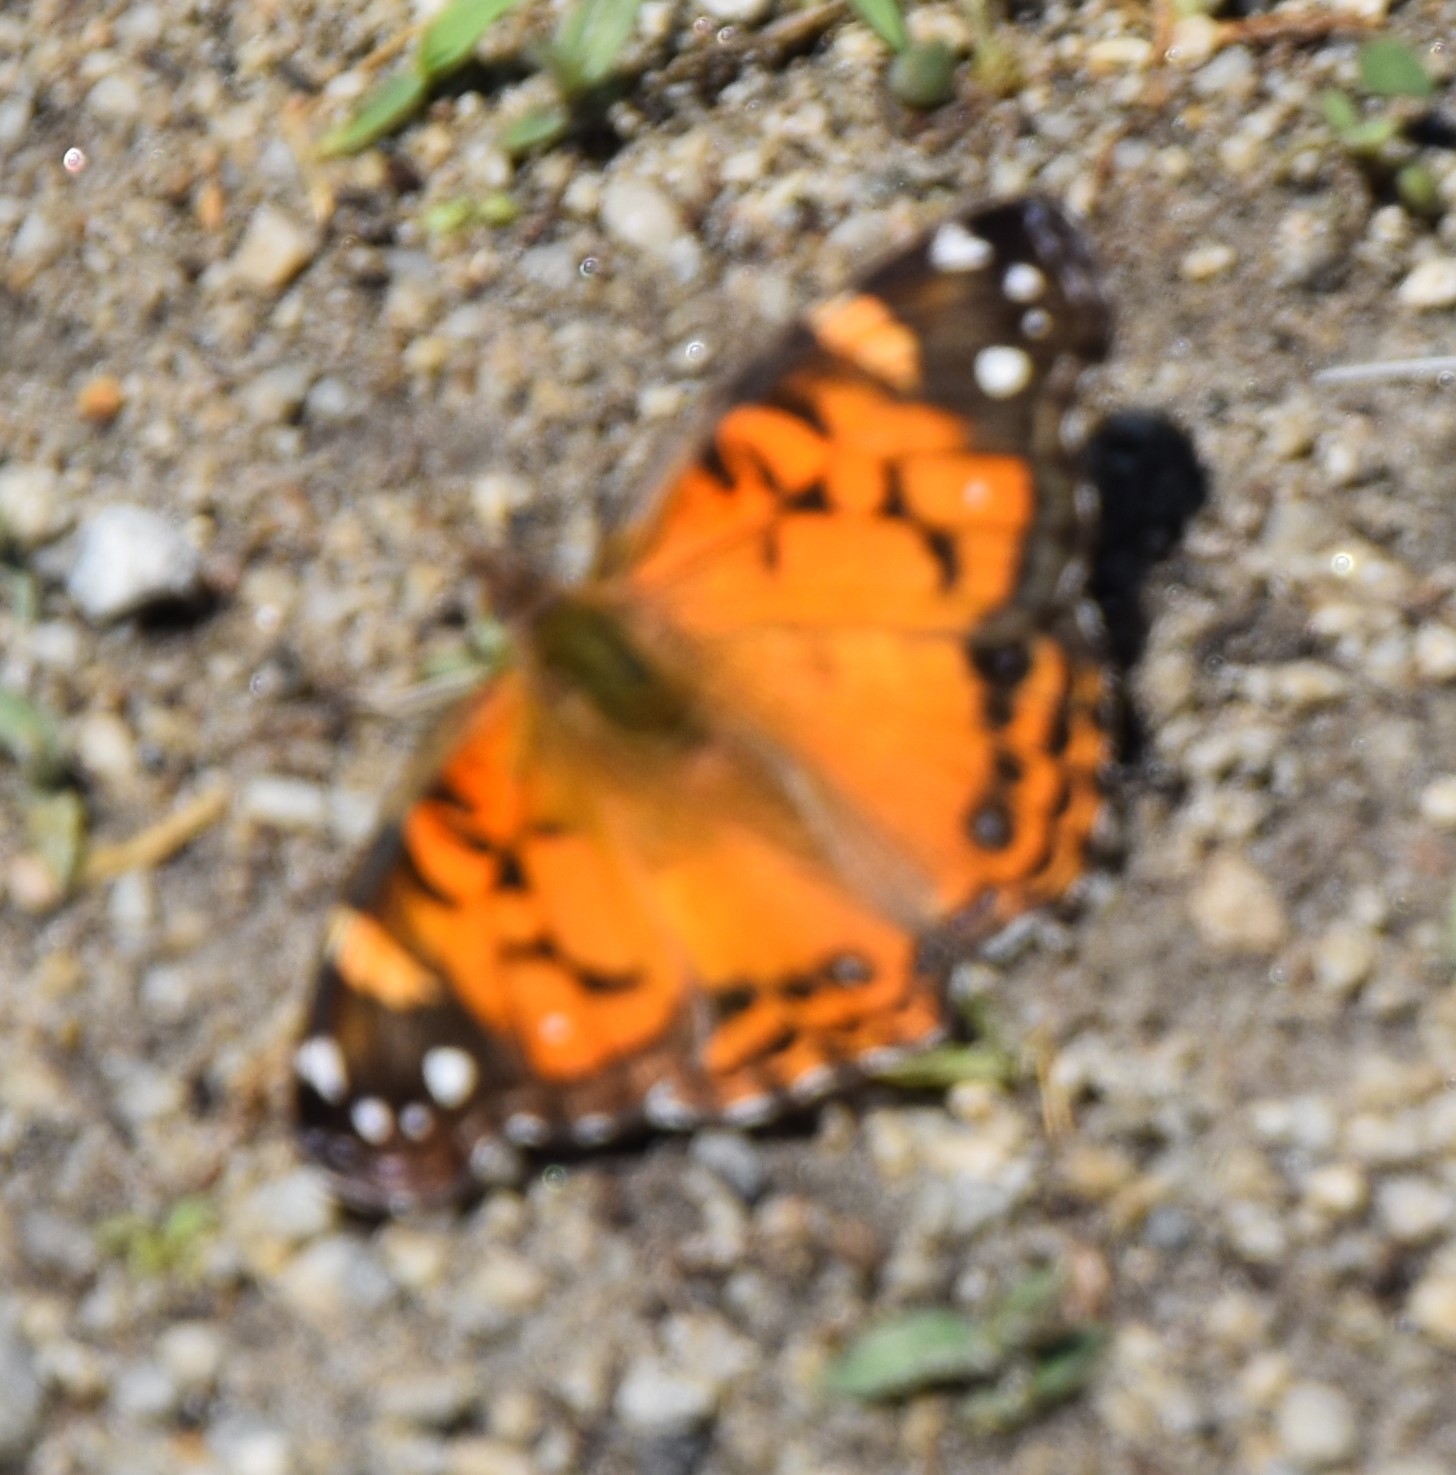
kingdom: Animalia
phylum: Arthropoda
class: Insecta
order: Lepidoptera
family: Nymphalidae
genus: Vanessa
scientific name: Vanessa virginiensis
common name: American lady
